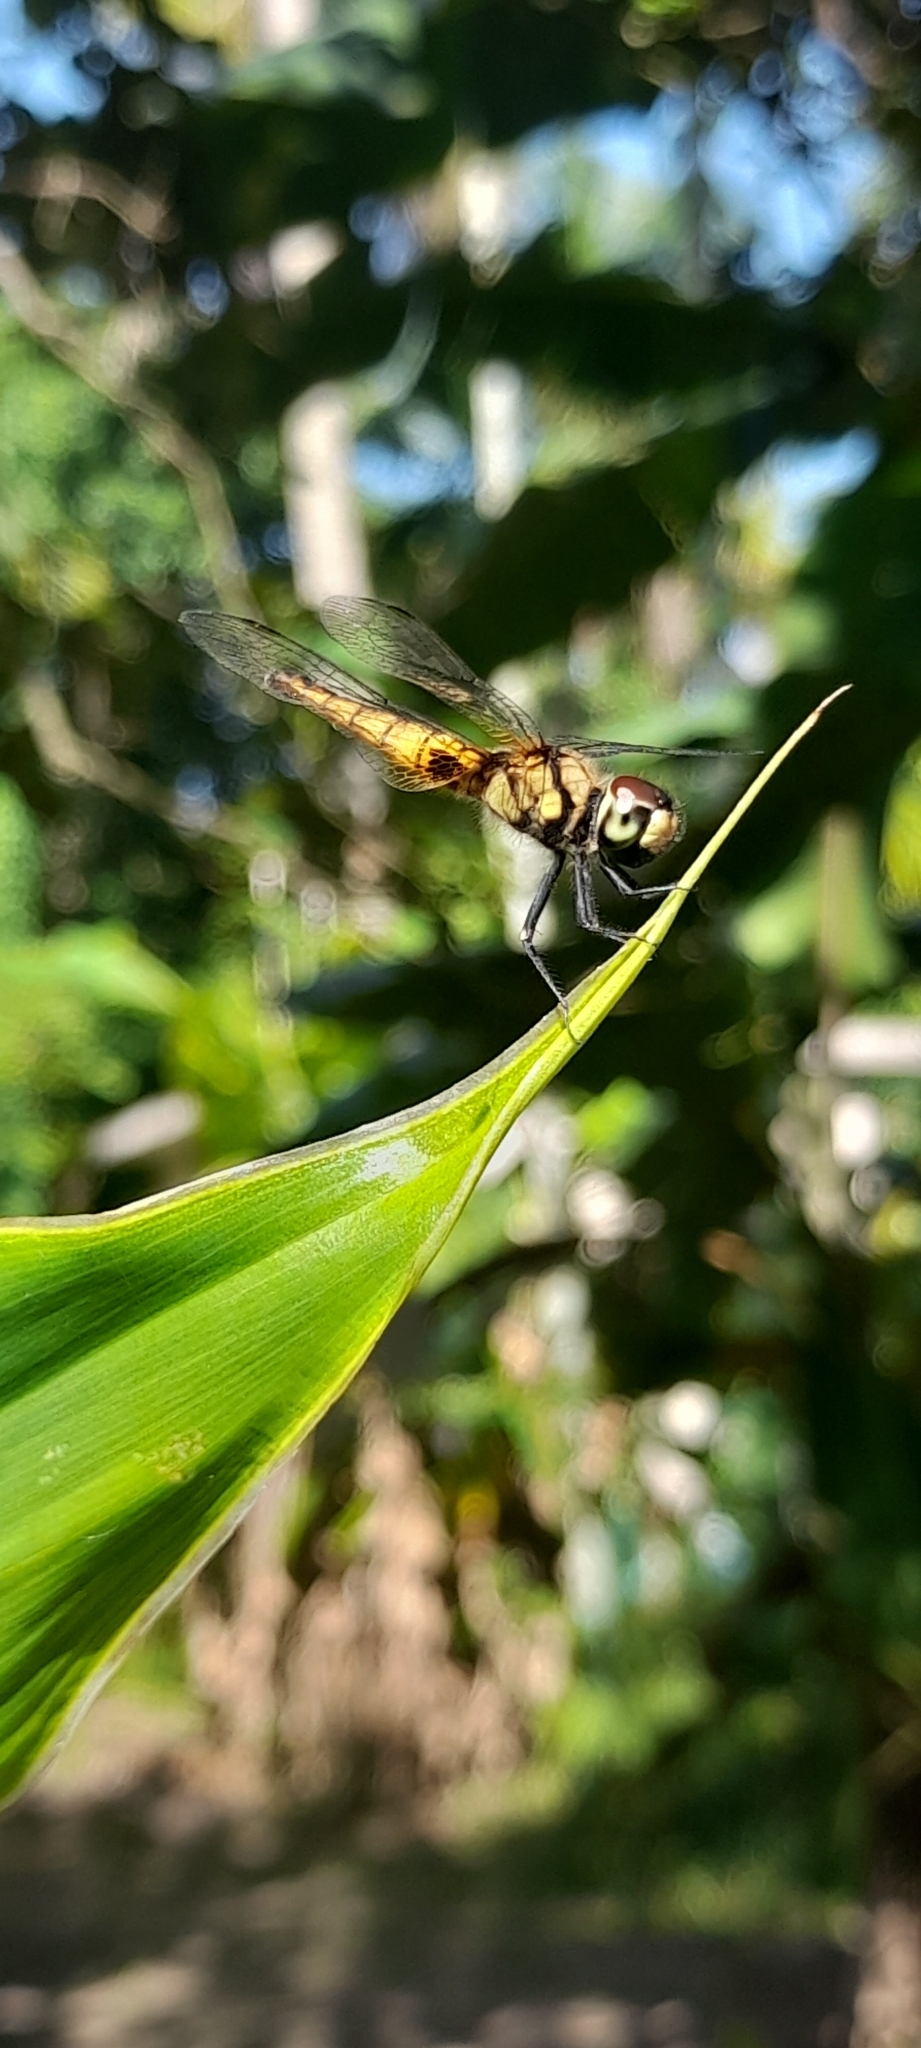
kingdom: Animalia
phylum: Arthropoda
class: Insecta
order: Odonata
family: Libellulidae
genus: Aethriamanta
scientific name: Aethriamanta brevipennis
